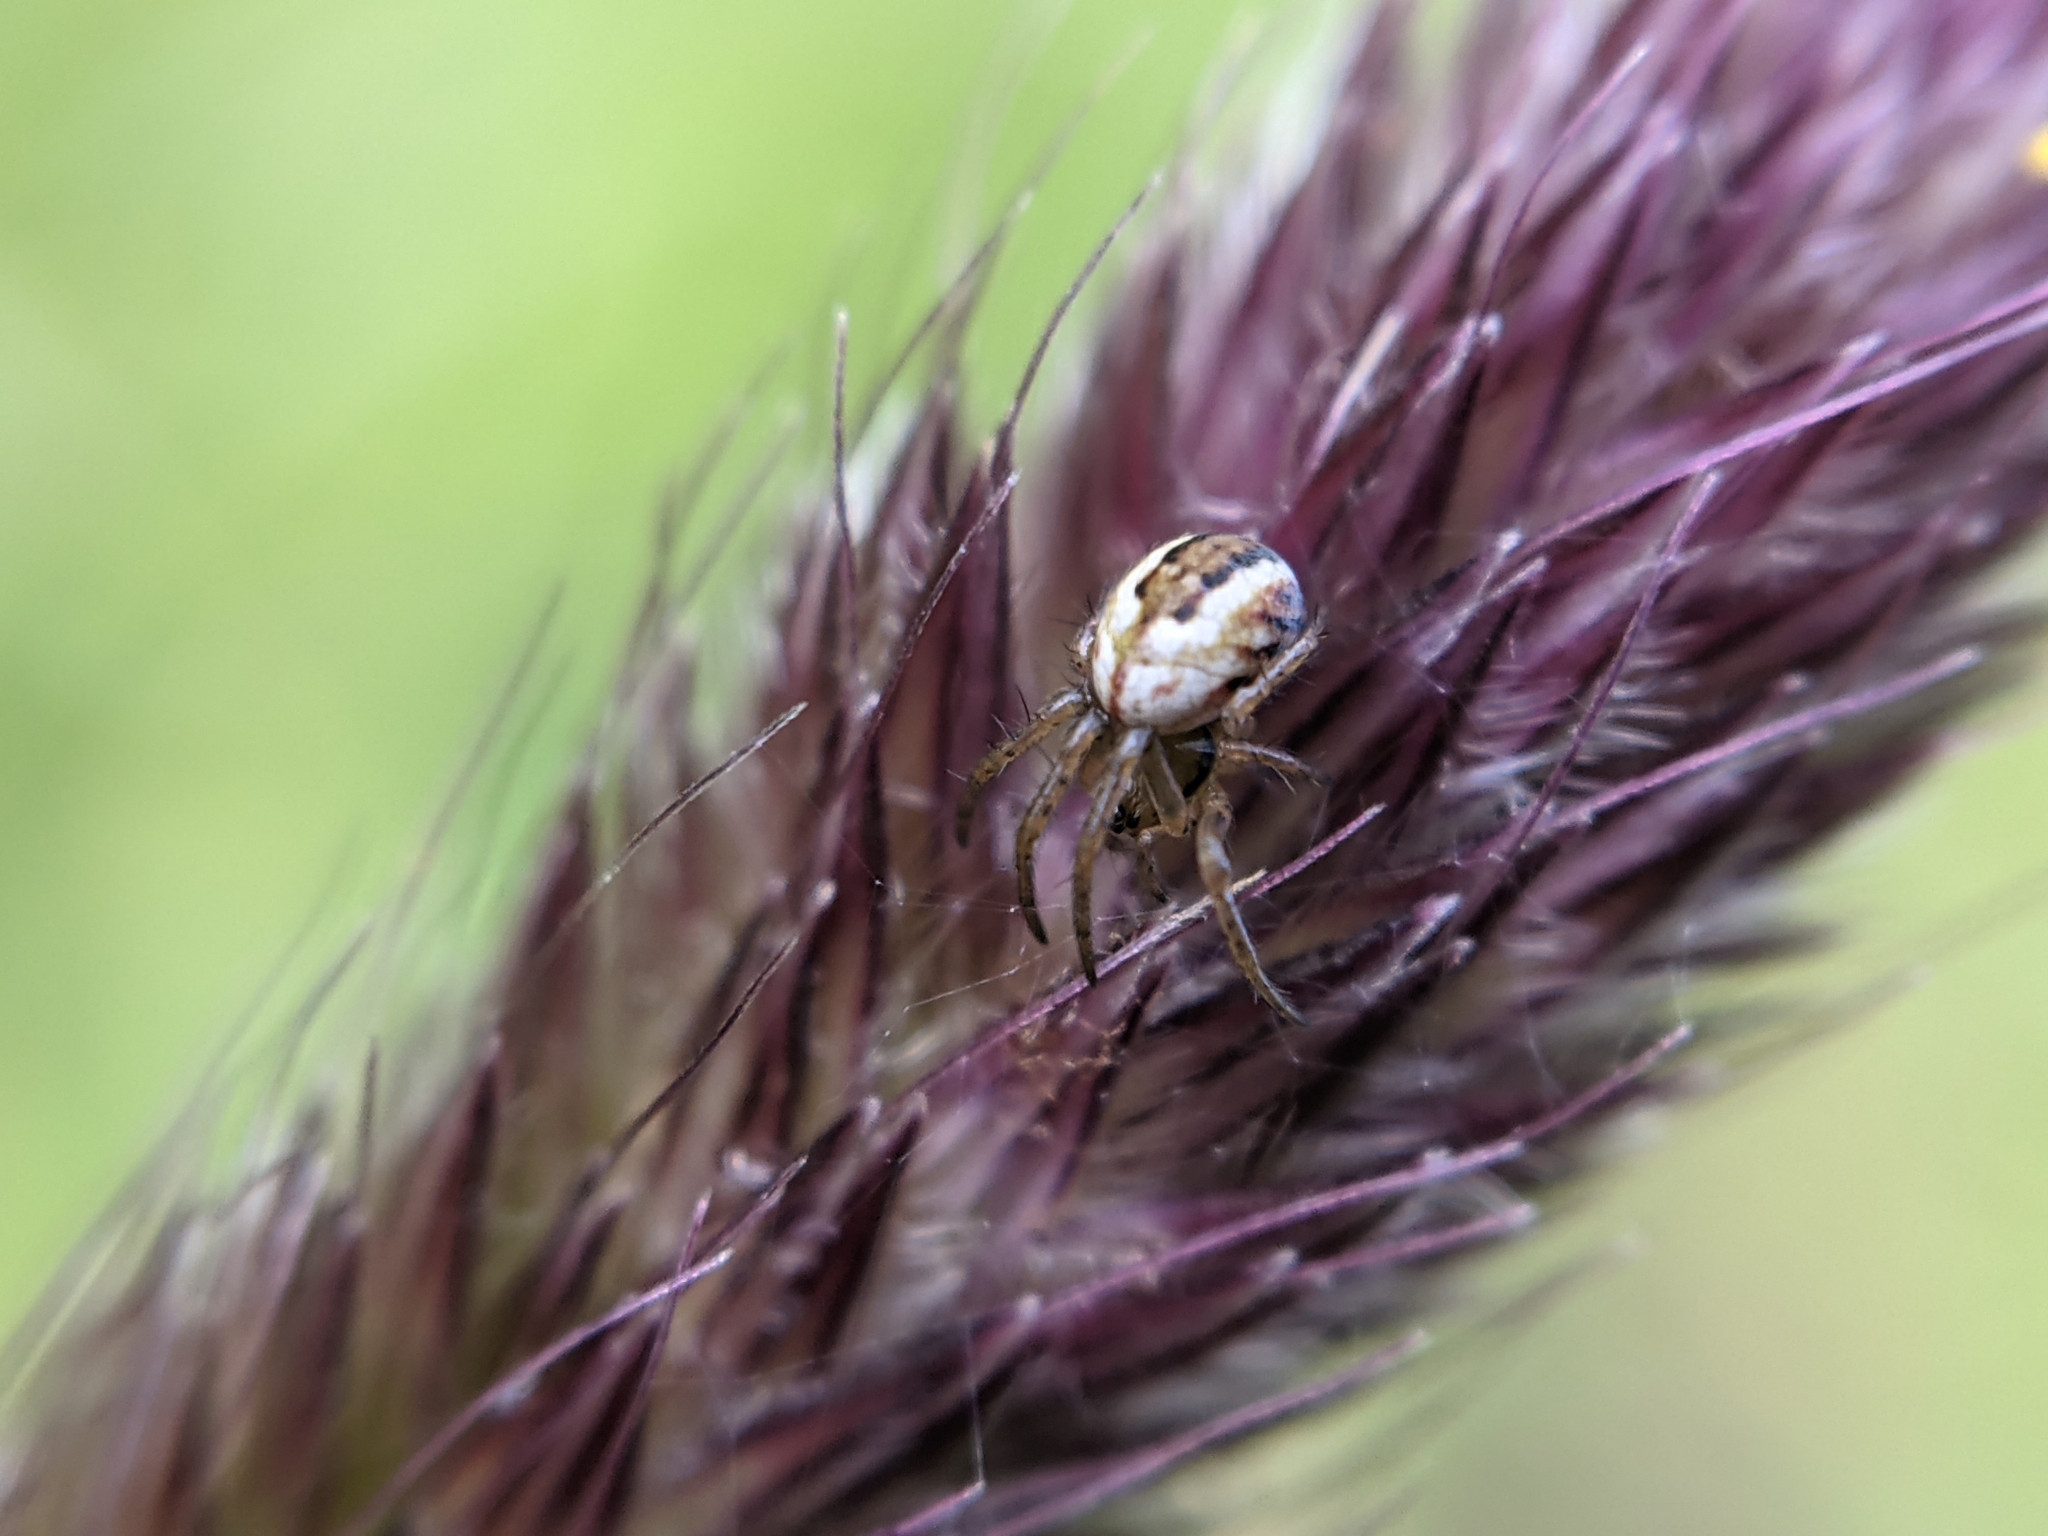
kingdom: Animalia
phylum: Arthropoda
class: Arachnida
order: Araneae
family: Araneidae
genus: Mangora
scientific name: Mangora acalypha
